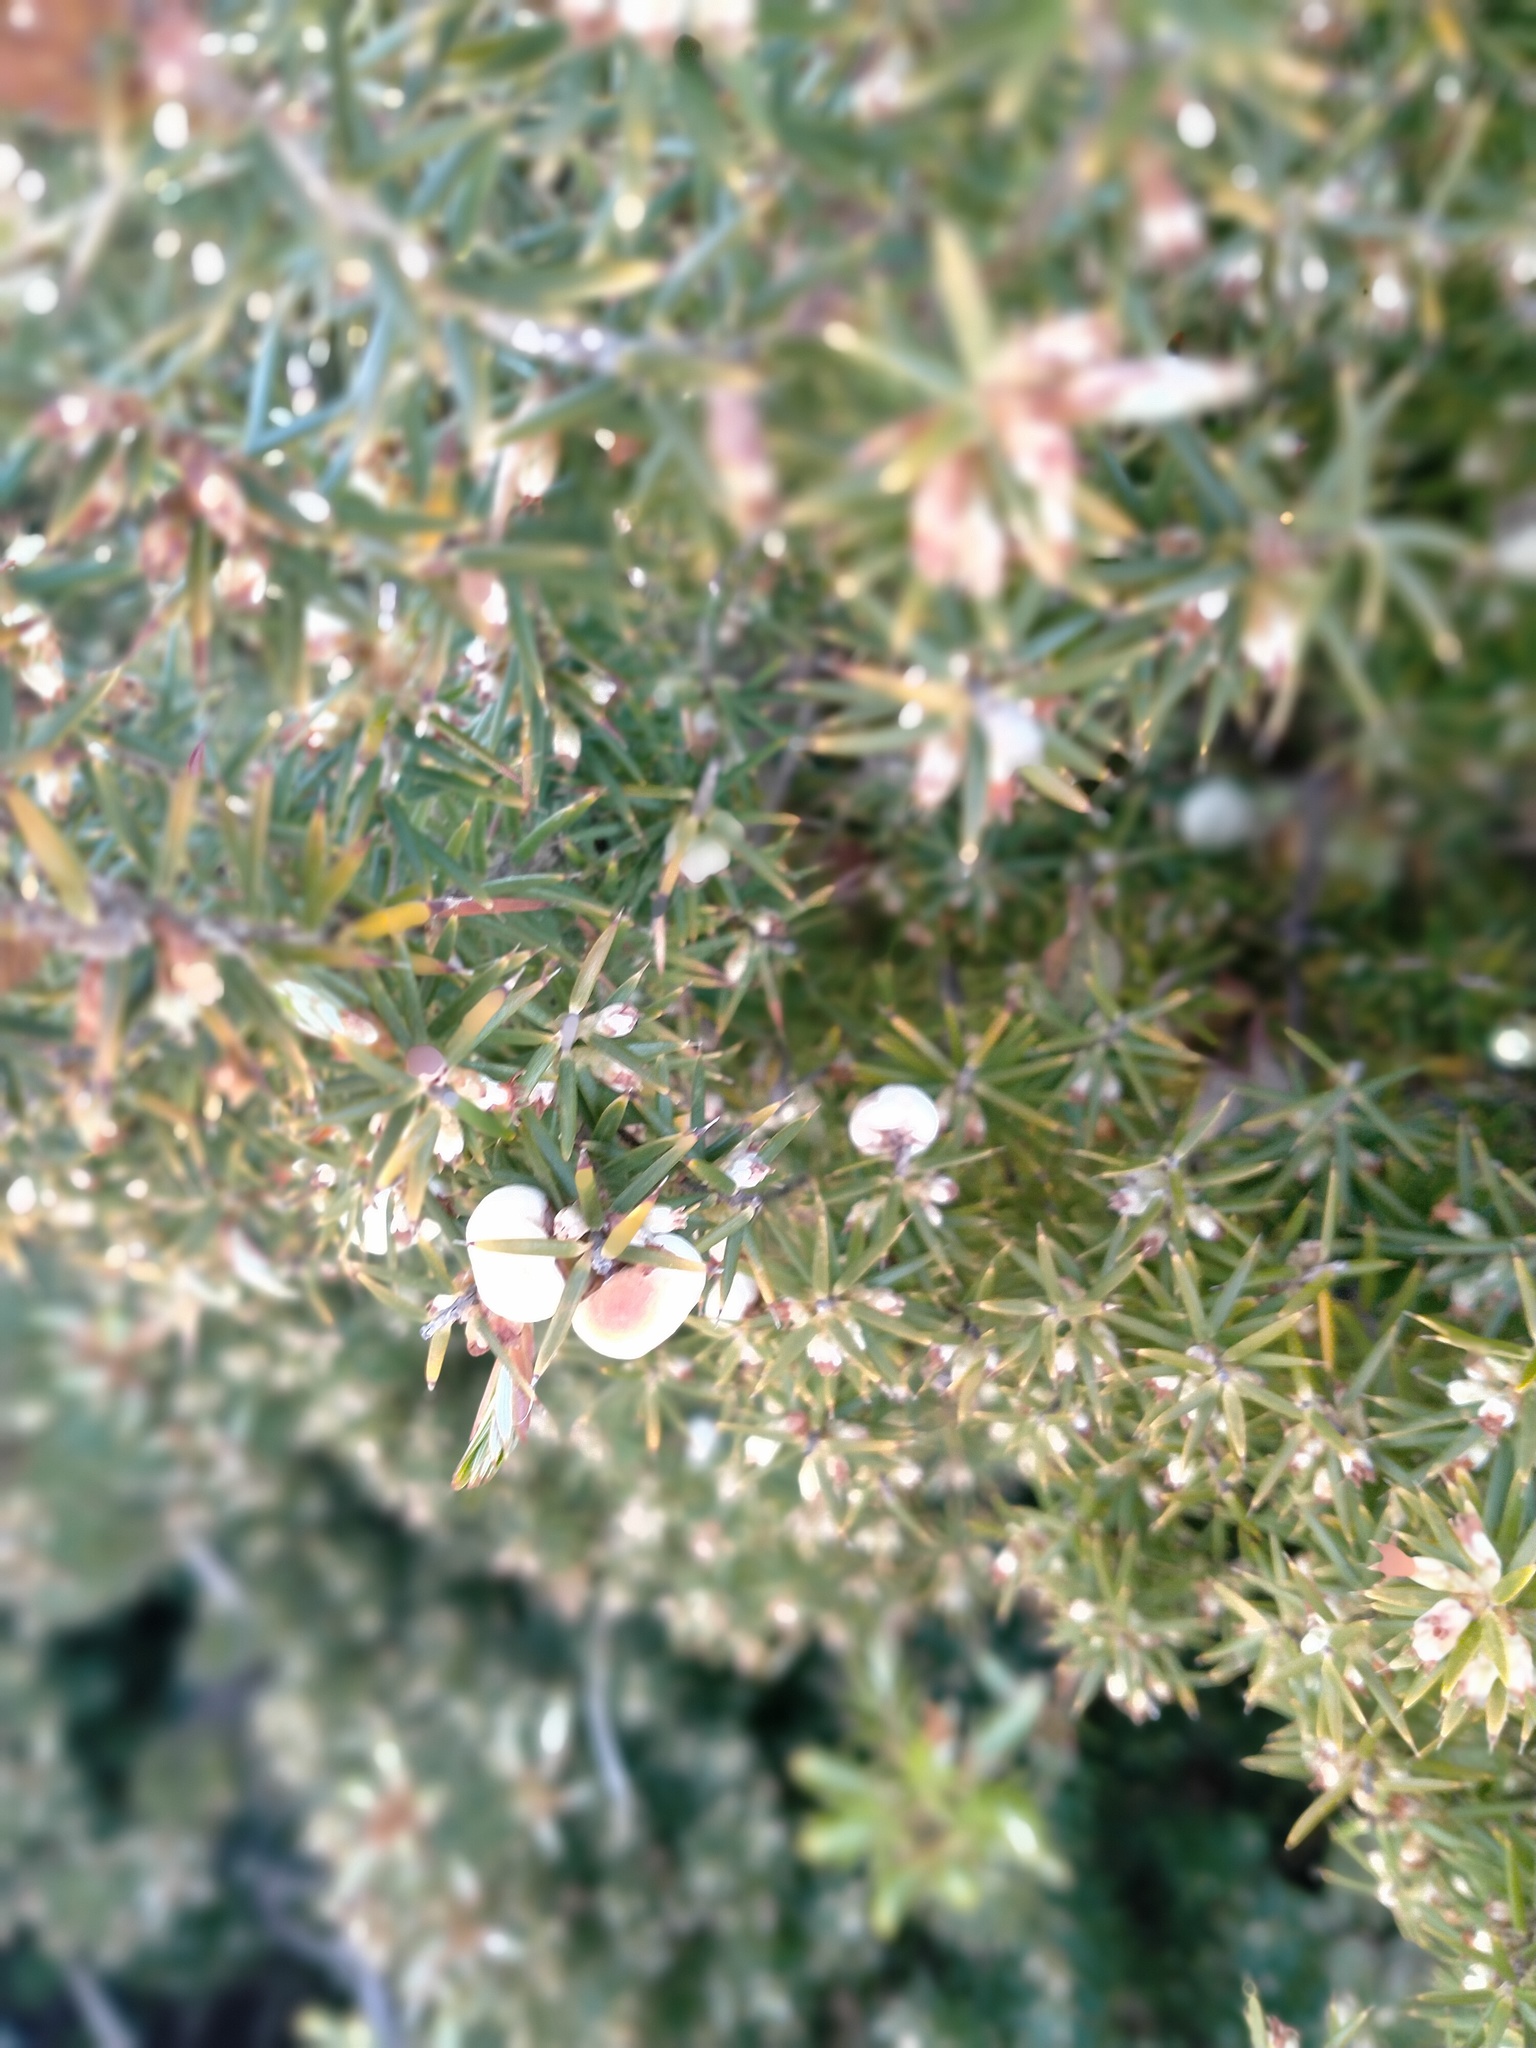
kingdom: Plantae
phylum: Tracheophyta
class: Magnoliopsida
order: Ericales
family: Ericaceae
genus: Leptecophylla
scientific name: Leptecophylla juniperina
